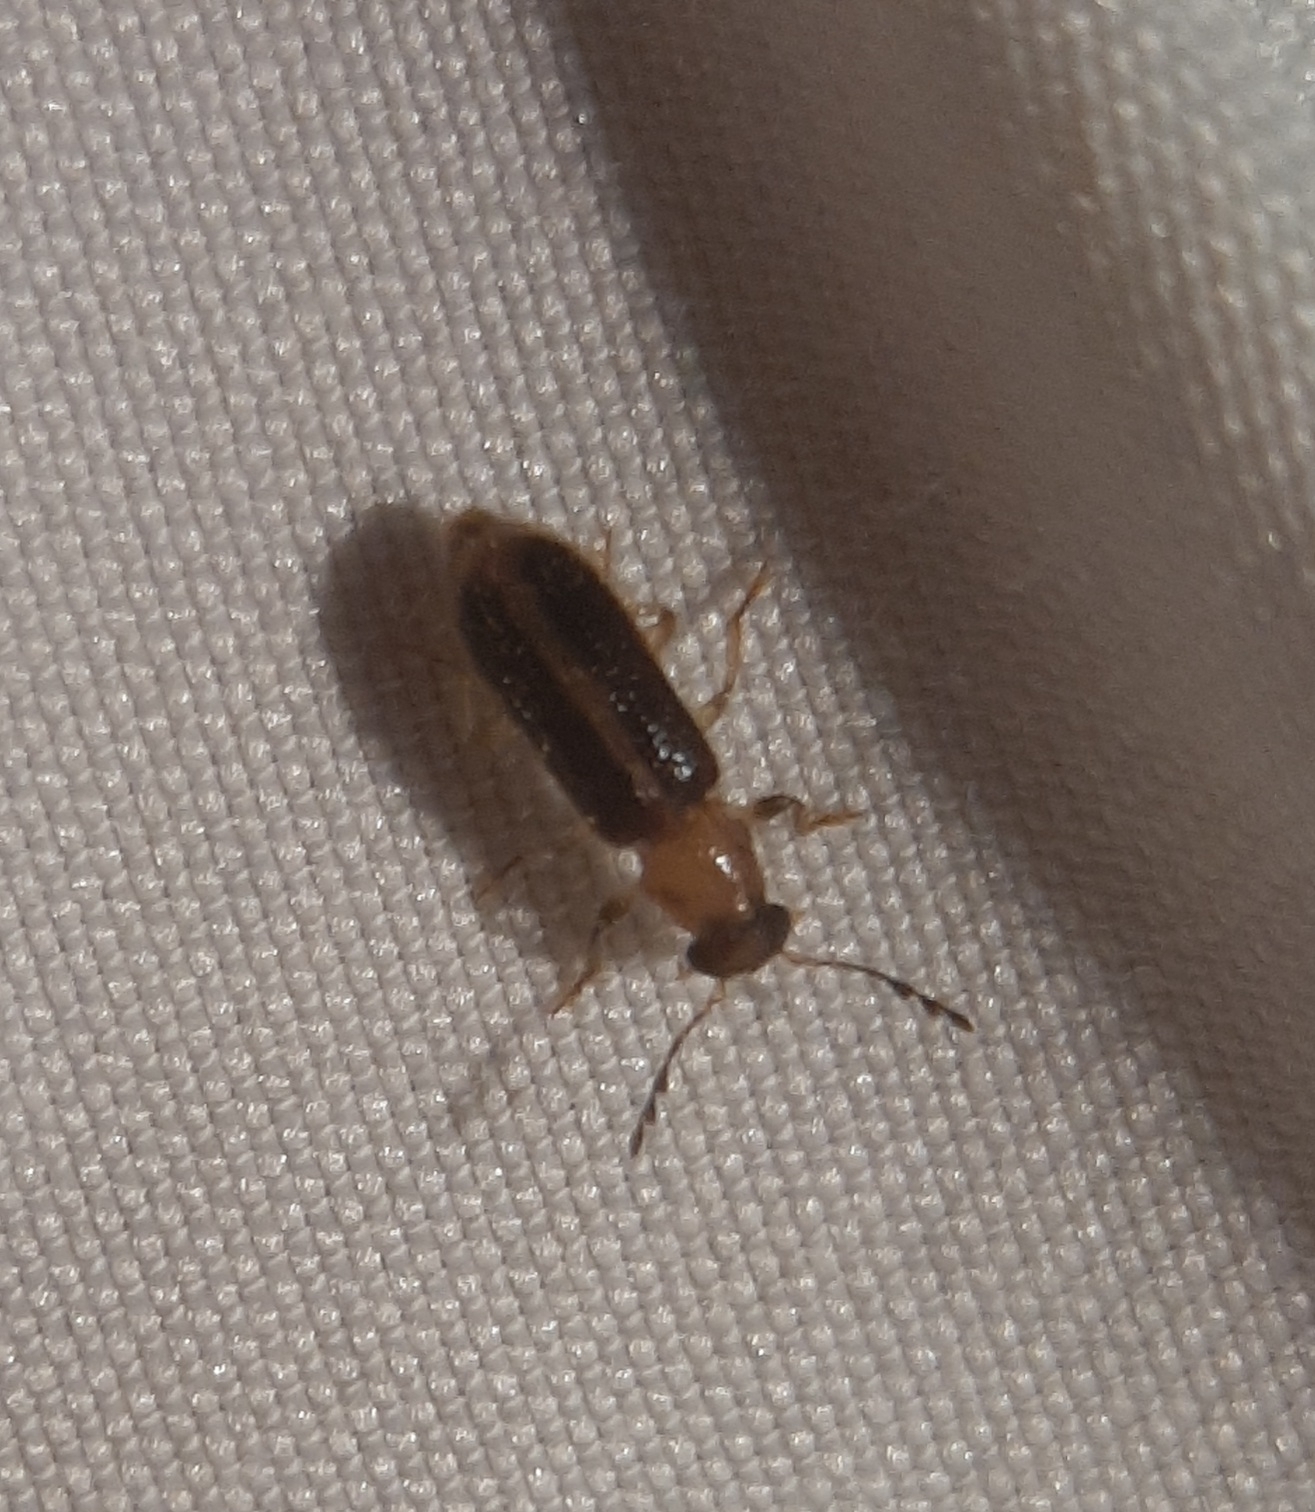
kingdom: Animalia
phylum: Arthropoda
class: Insecta
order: Coleoptera
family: Cleridae
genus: Cregya
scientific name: Cregya oculata
